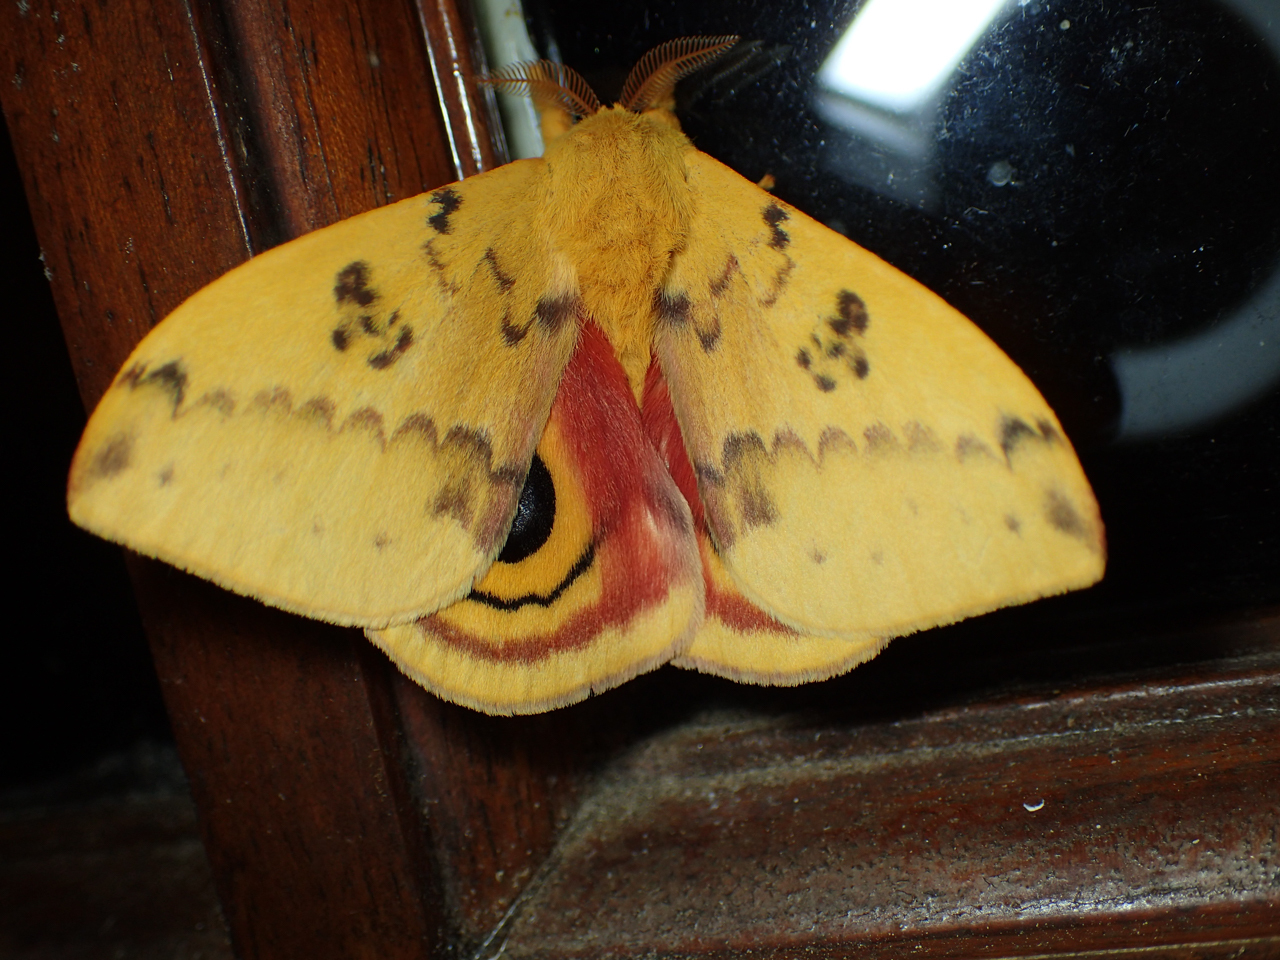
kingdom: Animalia
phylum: Arthropoda
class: Insecta
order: Lepidoptera
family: Saturniidae
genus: Automeris
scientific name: Automeris io
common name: Io moth
